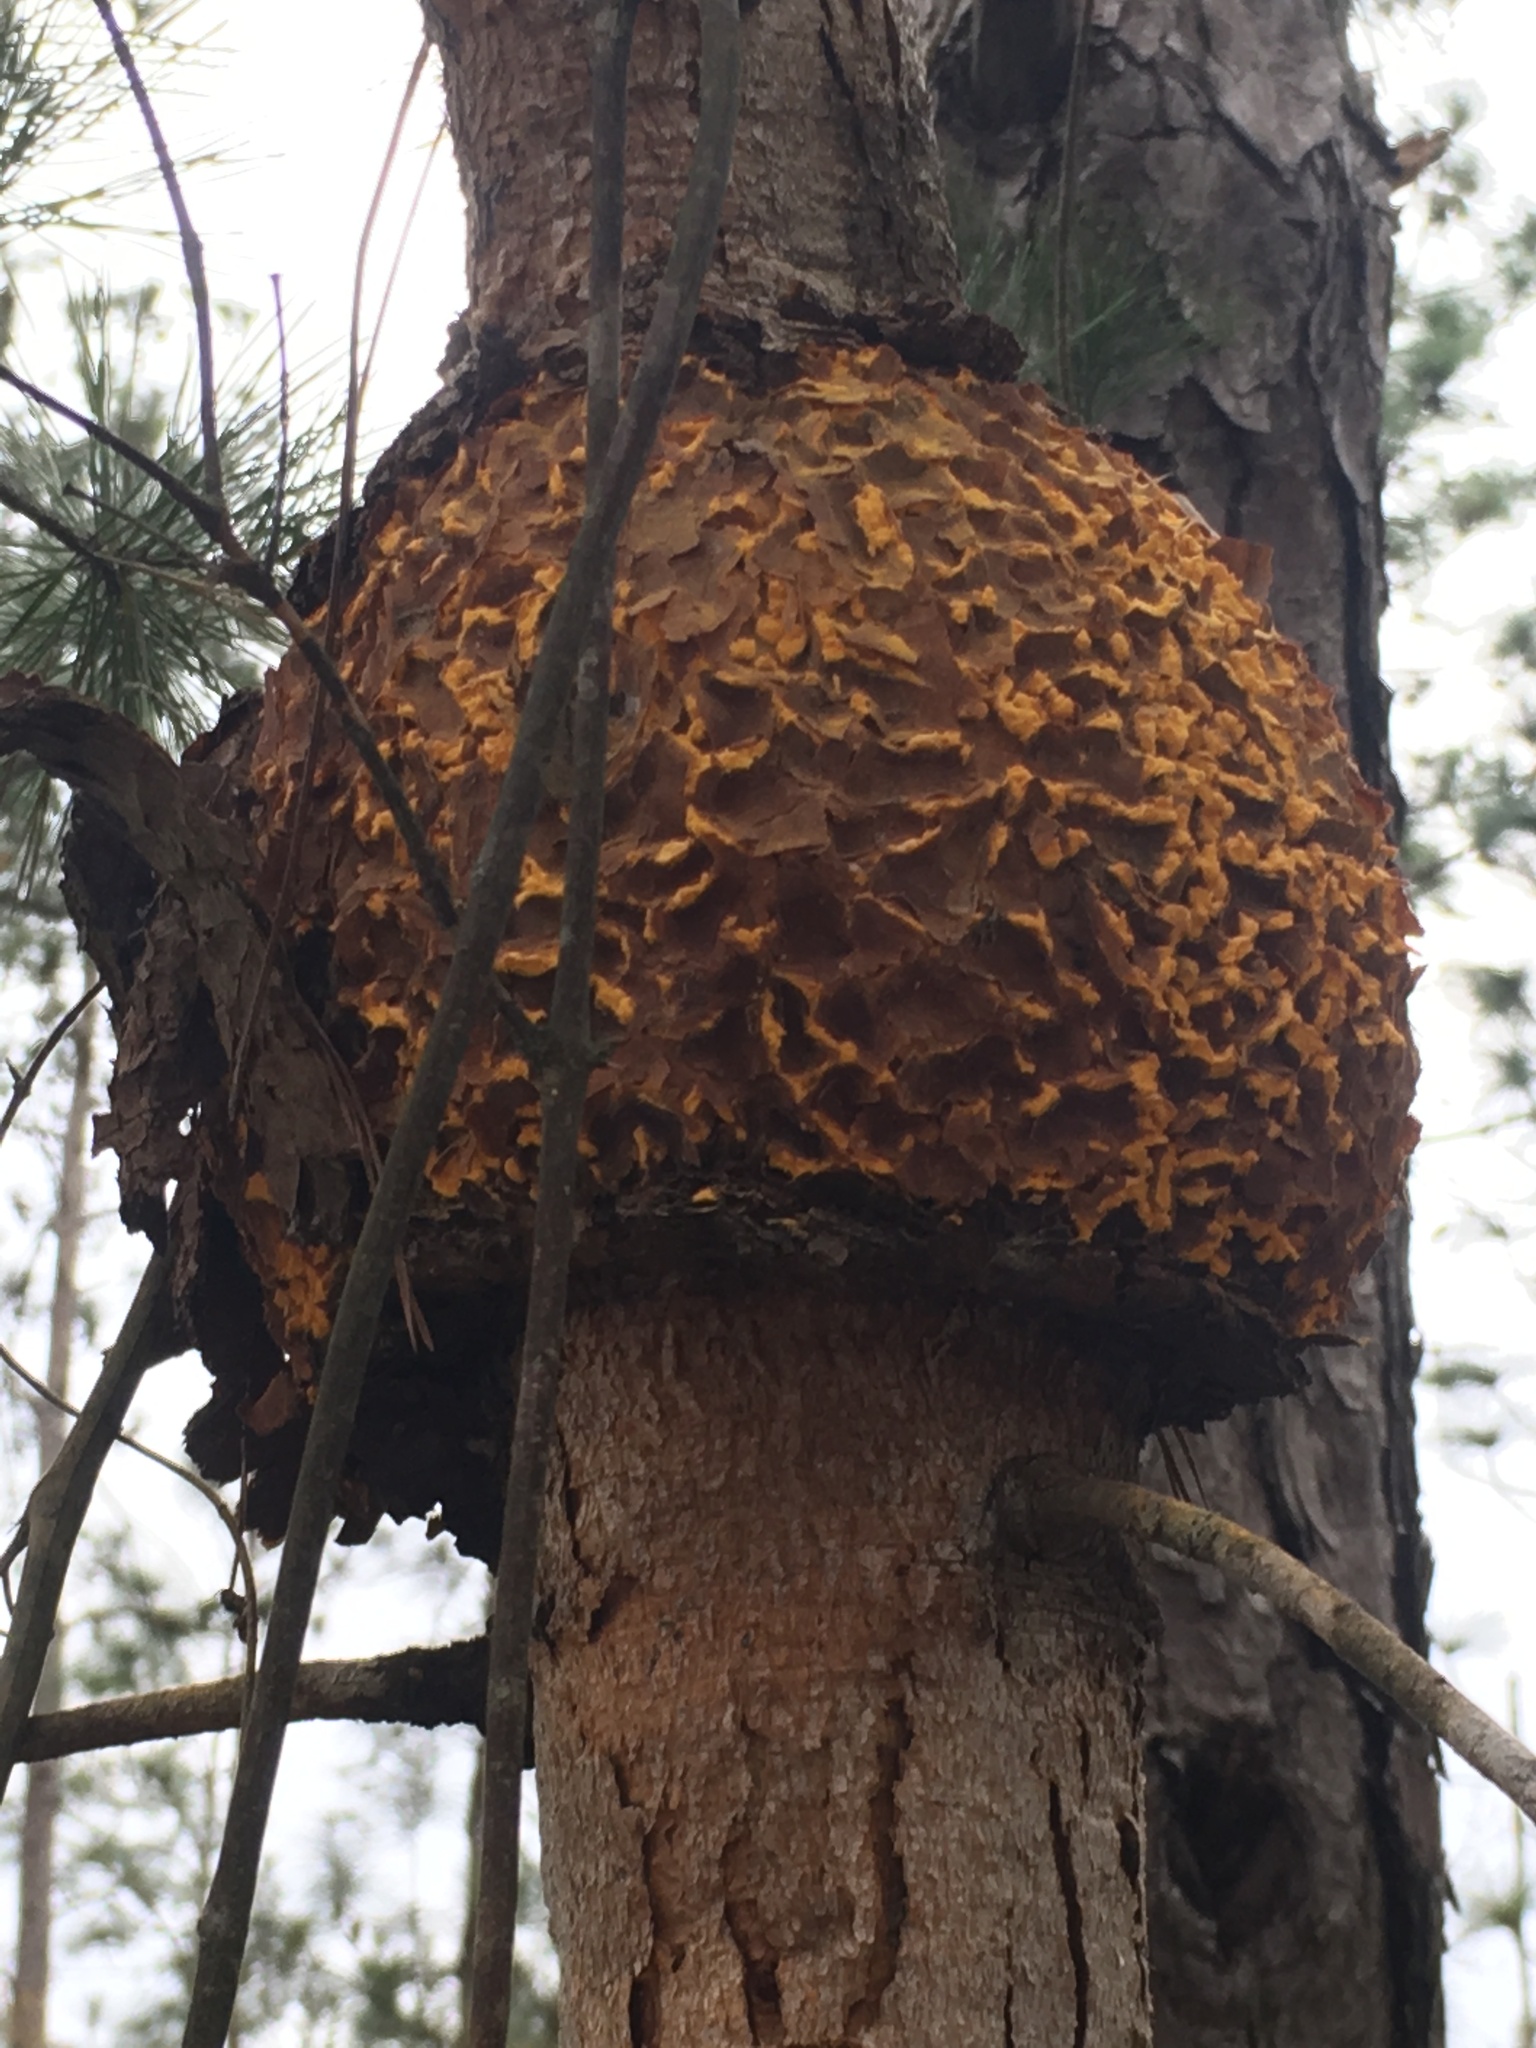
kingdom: Fungi
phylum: Basidiomycota
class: Pucciniomycetes
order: Pucciniales
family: Cronartiaceae
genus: Cronartium
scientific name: Cronartium quercuum
